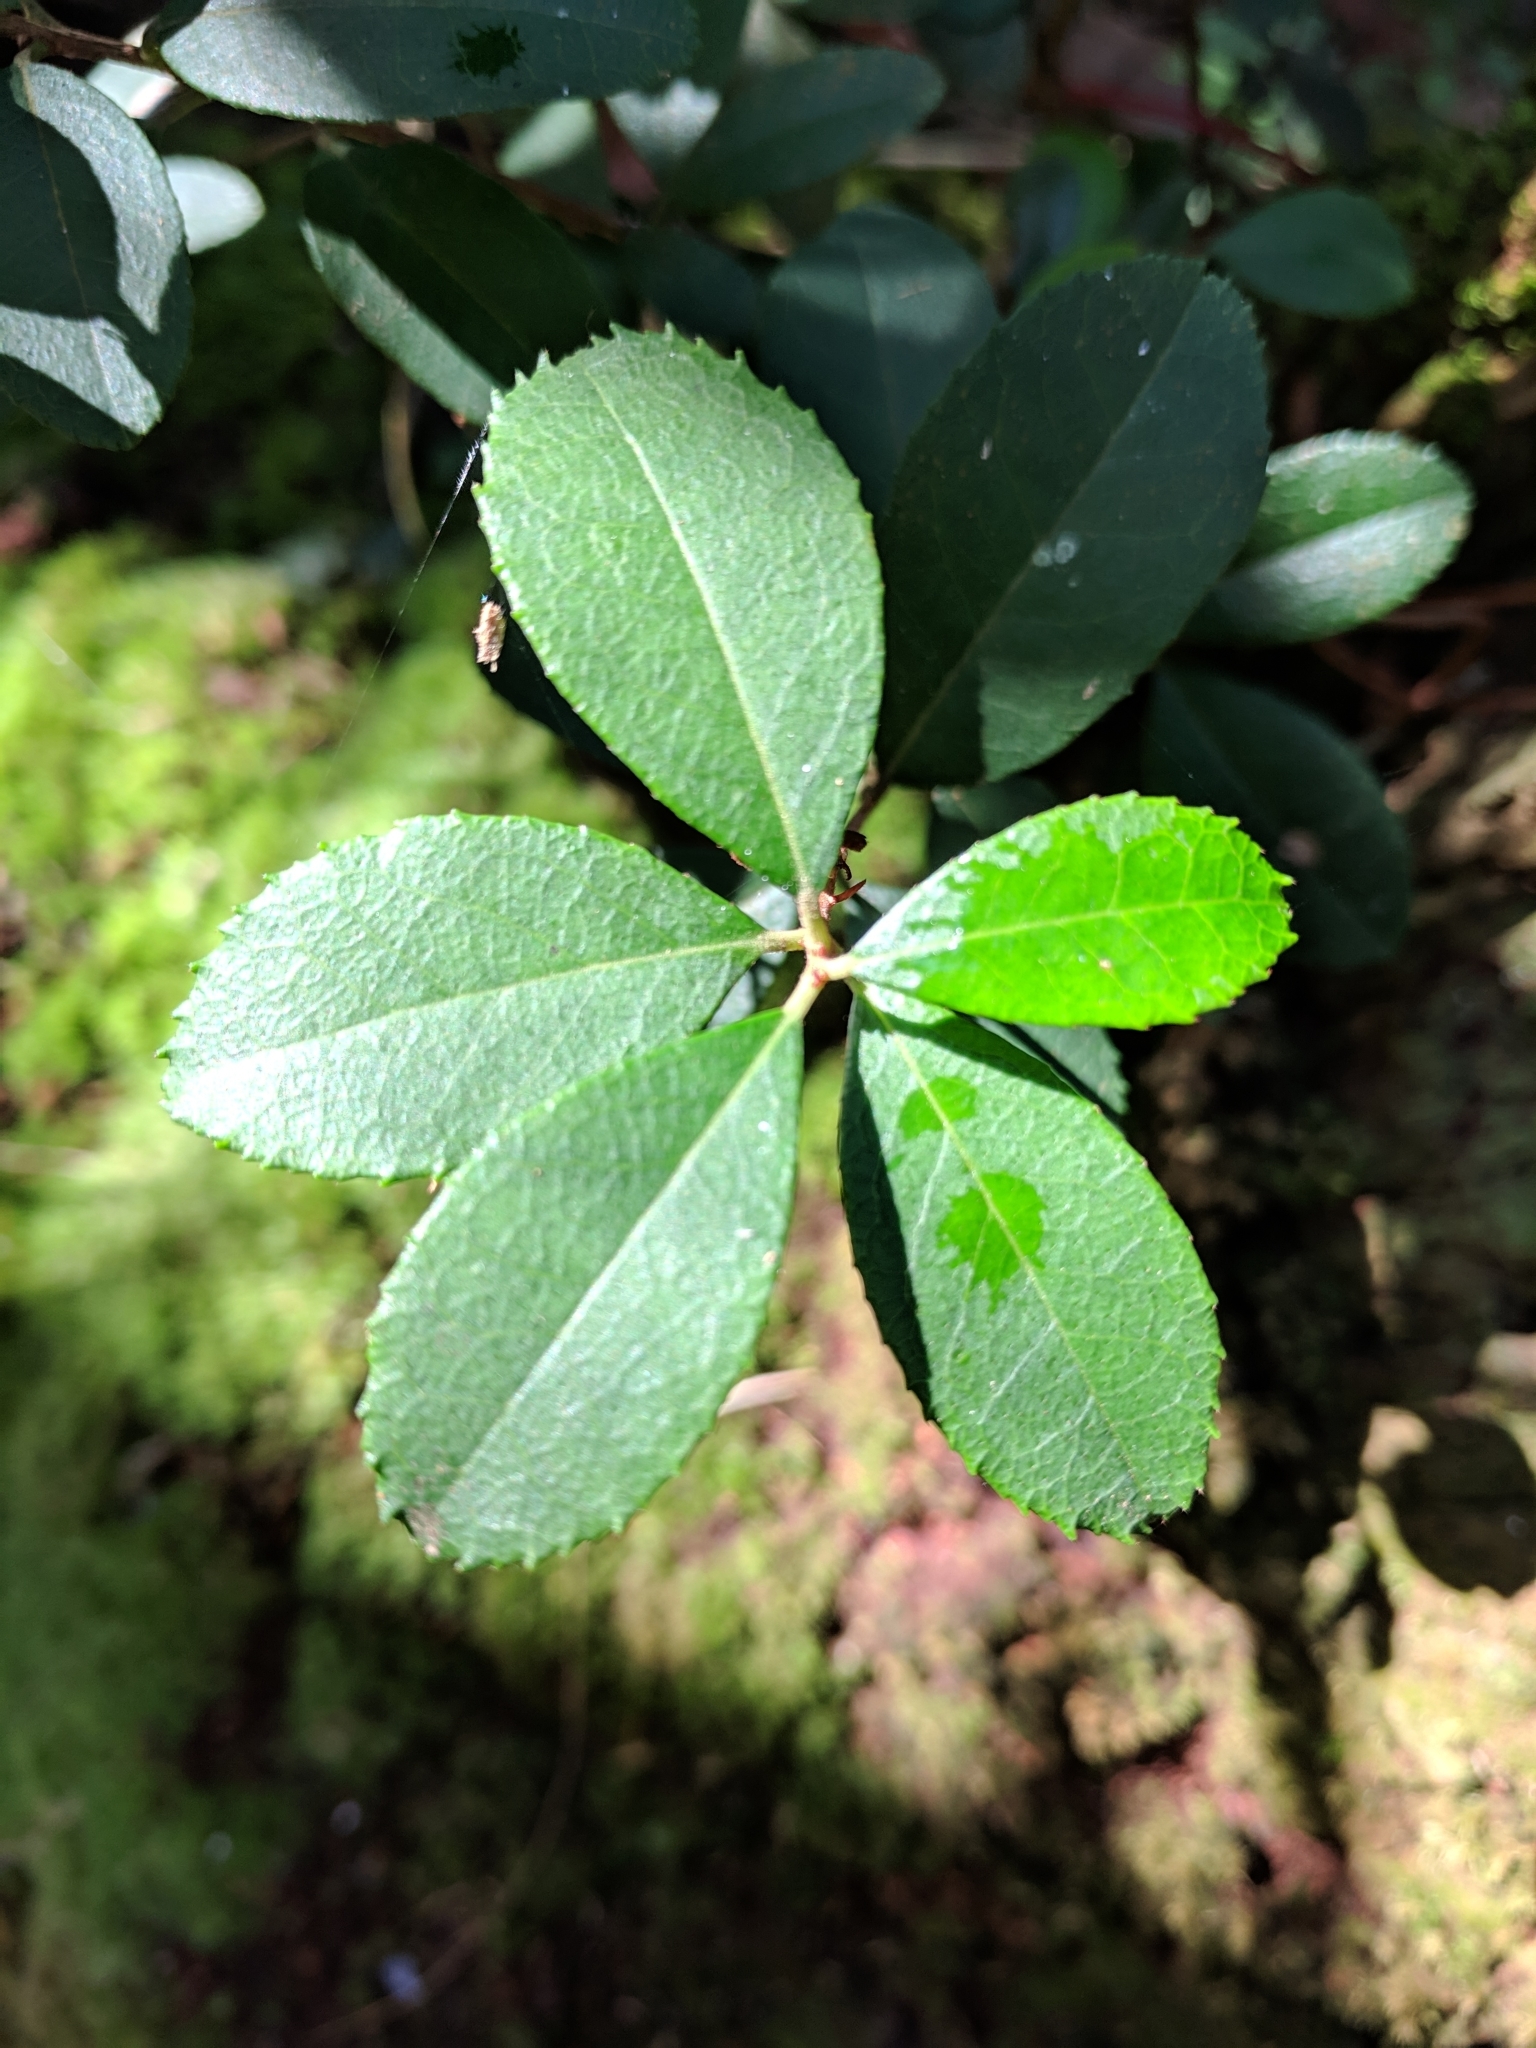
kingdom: Plantae
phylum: Tracheophyta
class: Magnoliopsida
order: Ericales
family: Ericaceae
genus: Pieris
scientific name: Pieris phillyreifolia
